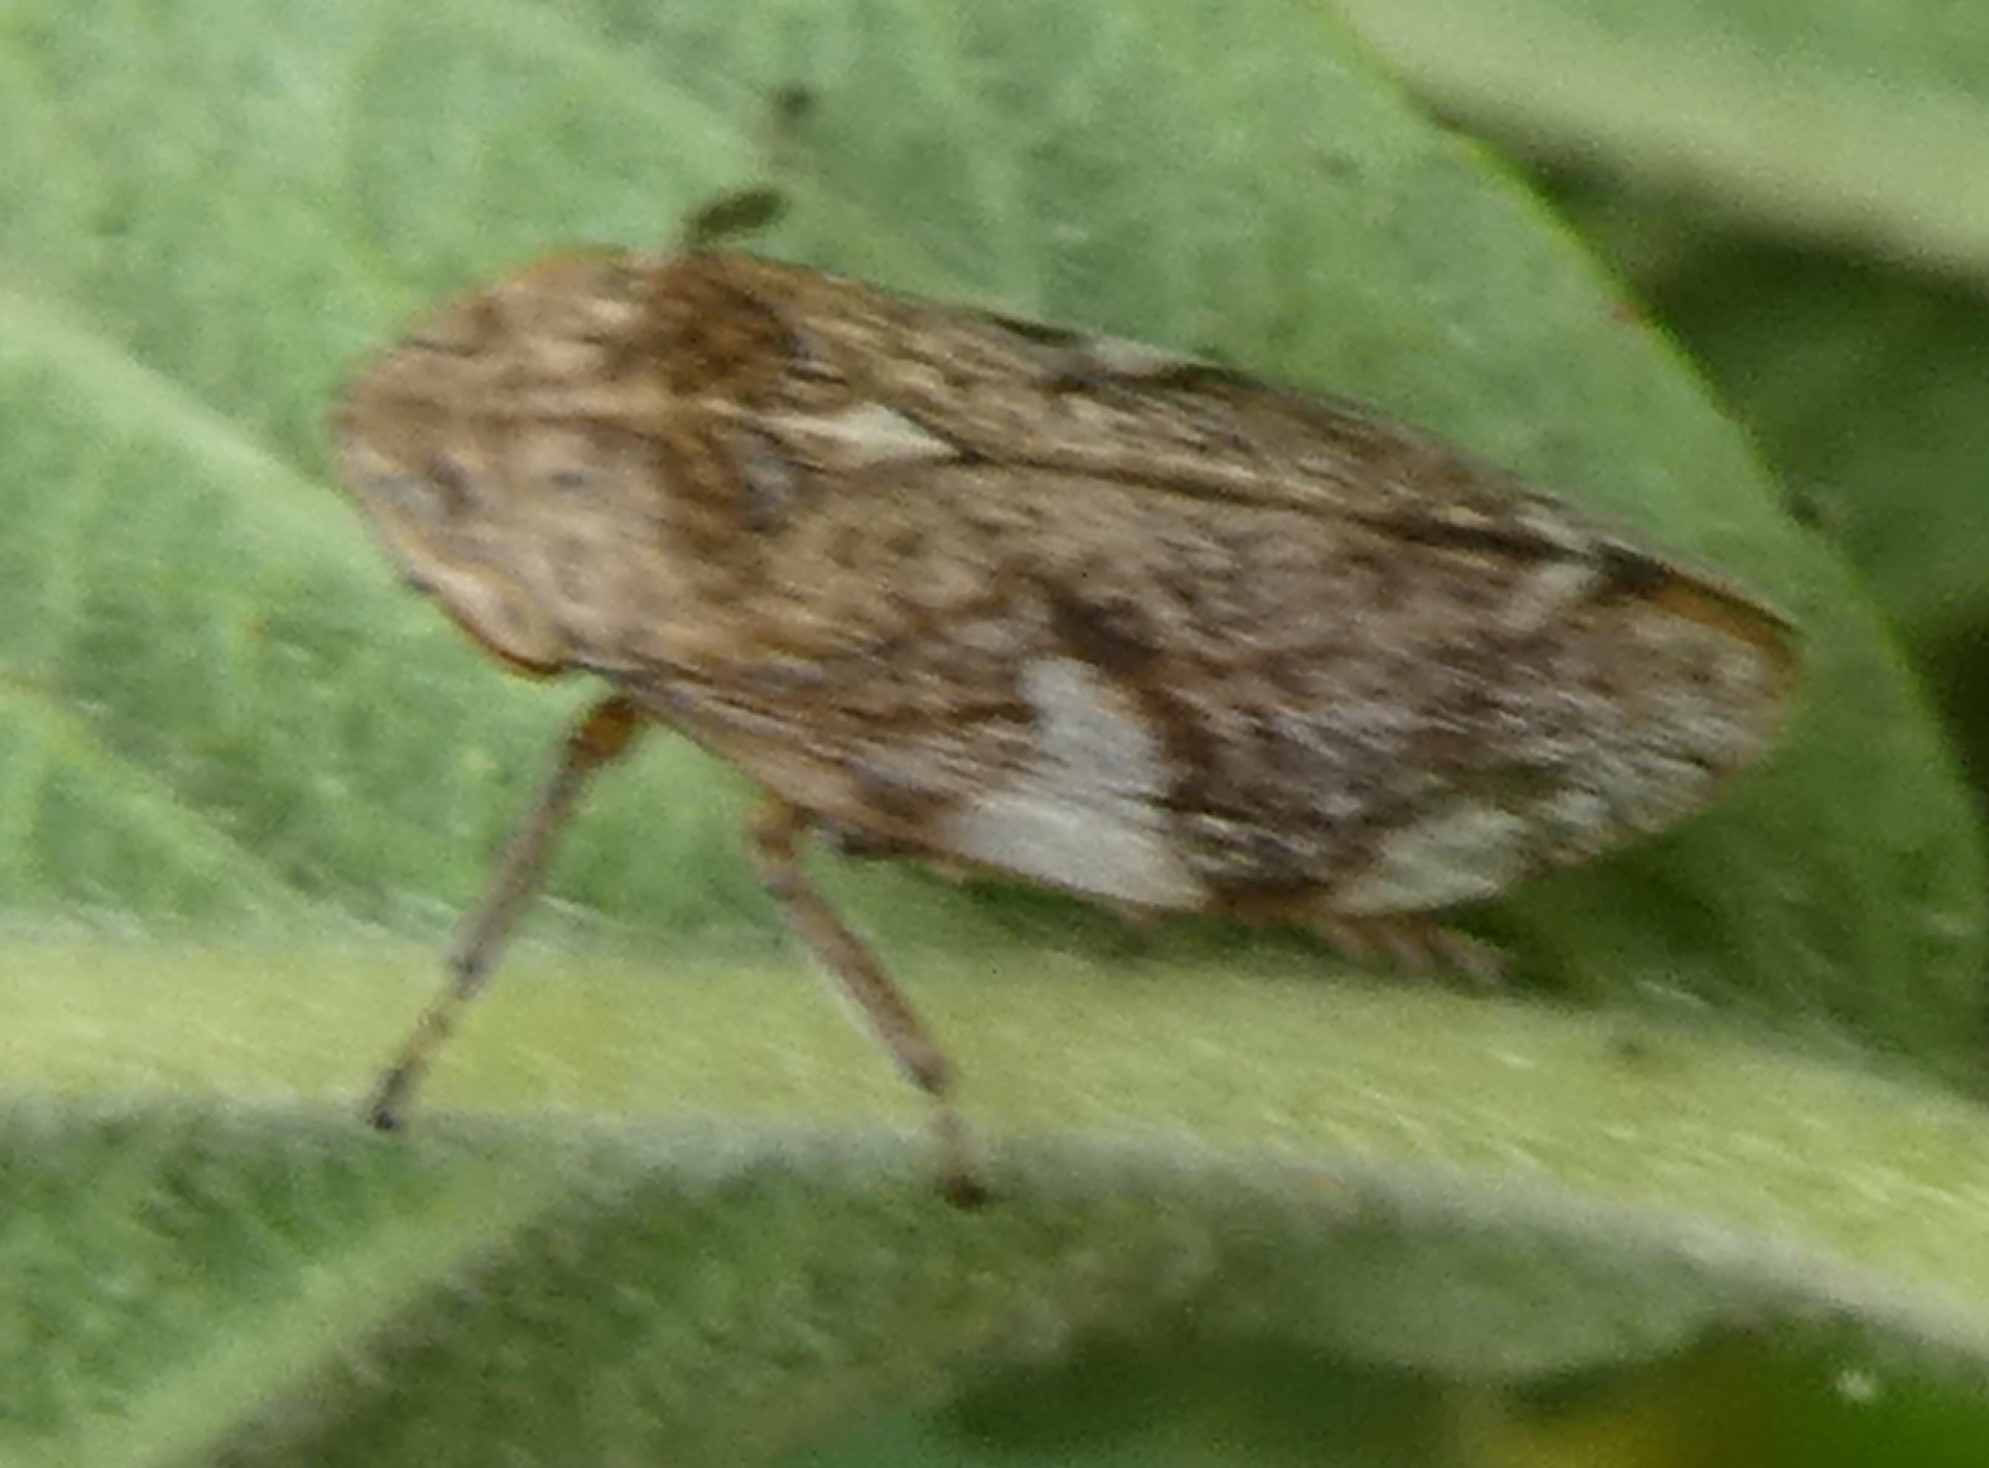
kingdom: Animalia
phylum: Arthropoda
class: Insecta
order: Hemiptera
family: Aphrophoridae
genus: Philaenus
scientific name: Philaenus spumarius
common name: Meadow spittlebug
